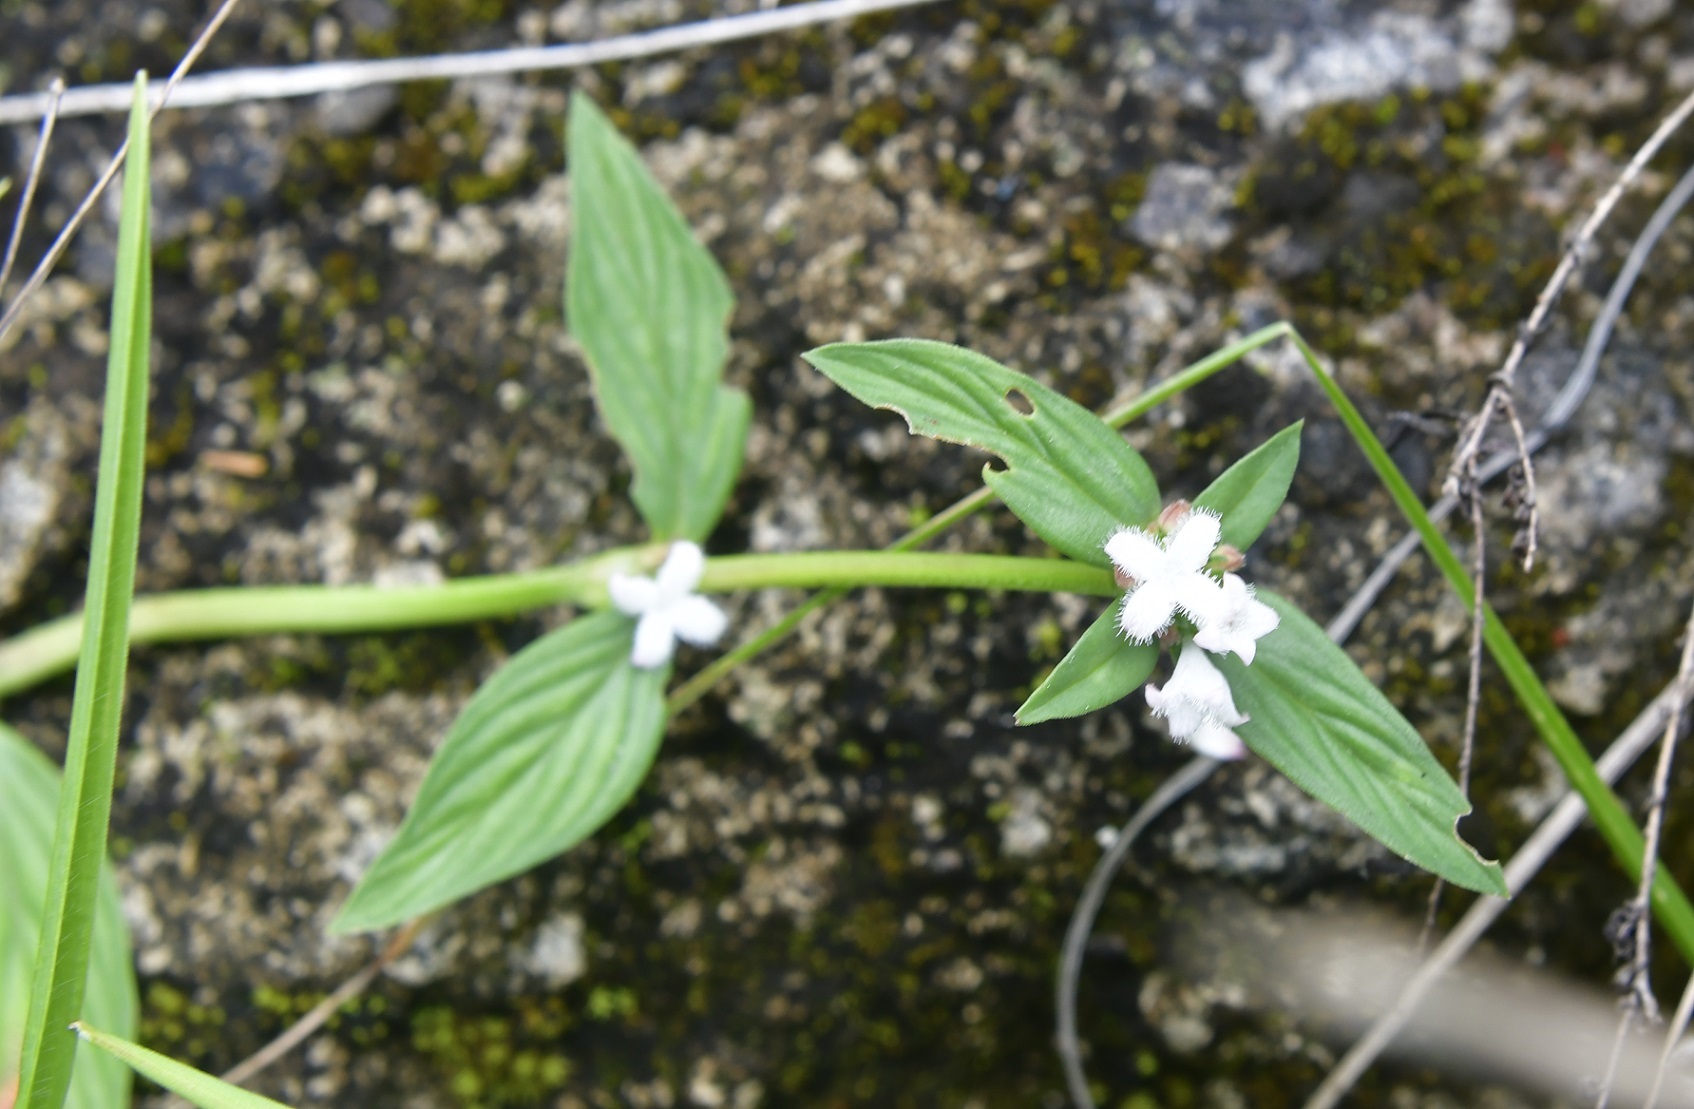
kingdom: Plantae
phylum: Tracheophyta
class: Magnoliopsida
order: Gentianales
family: Rubiaceae
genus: Spermacoce
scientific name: Spermacoce remota
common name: Woodland false buttonweed
